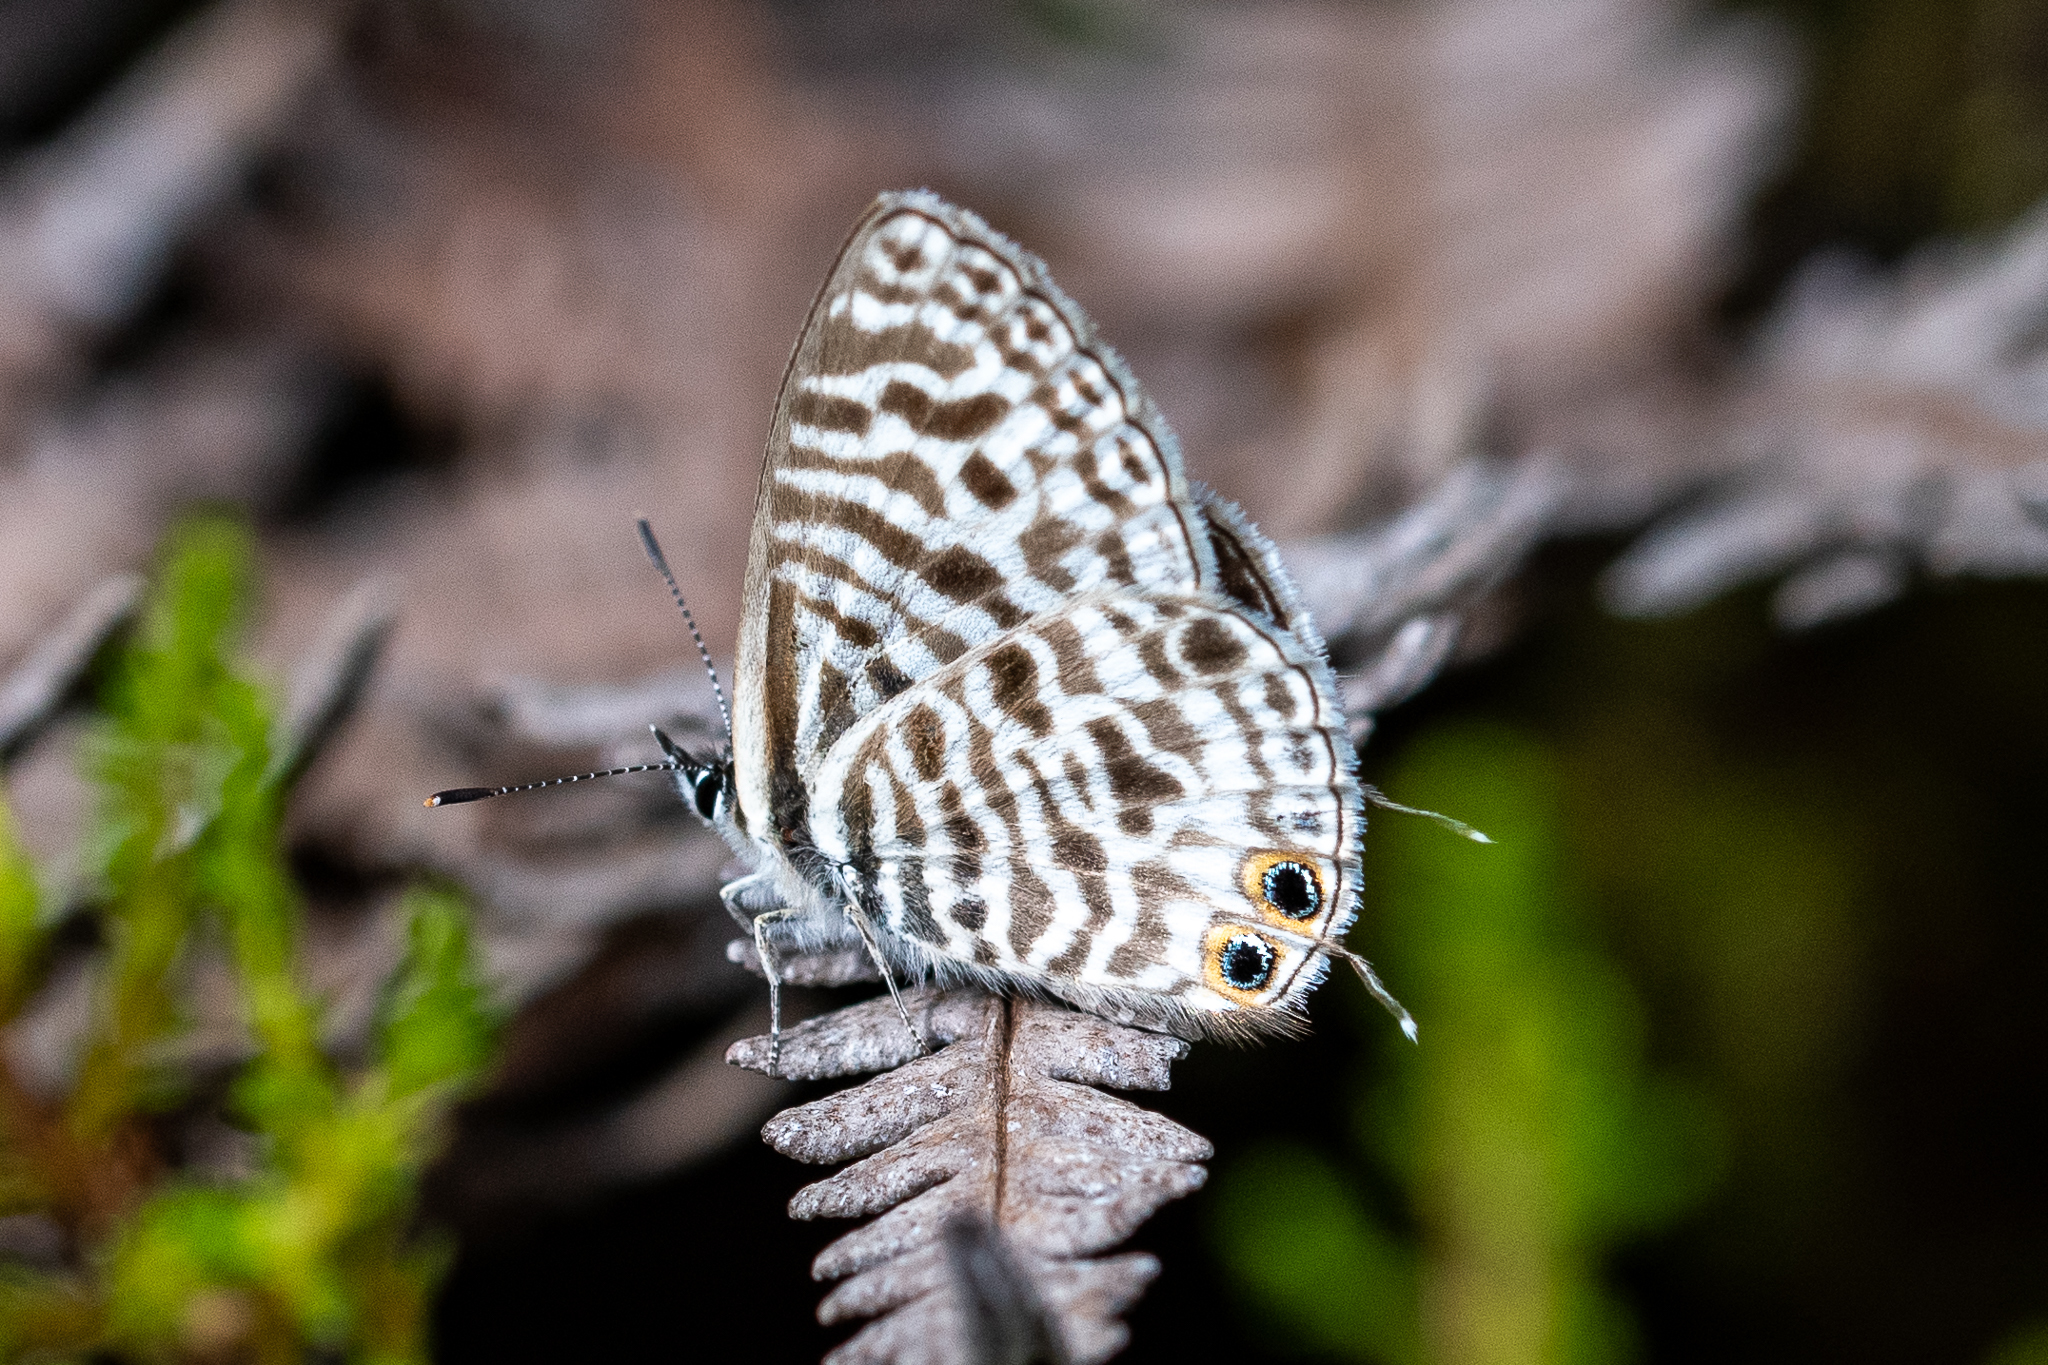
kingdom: Animalia
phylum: Arthropoda
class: Insecta
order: Lepidoptera
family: Lycaenidae
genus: Leptotes
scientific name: Leptotes
